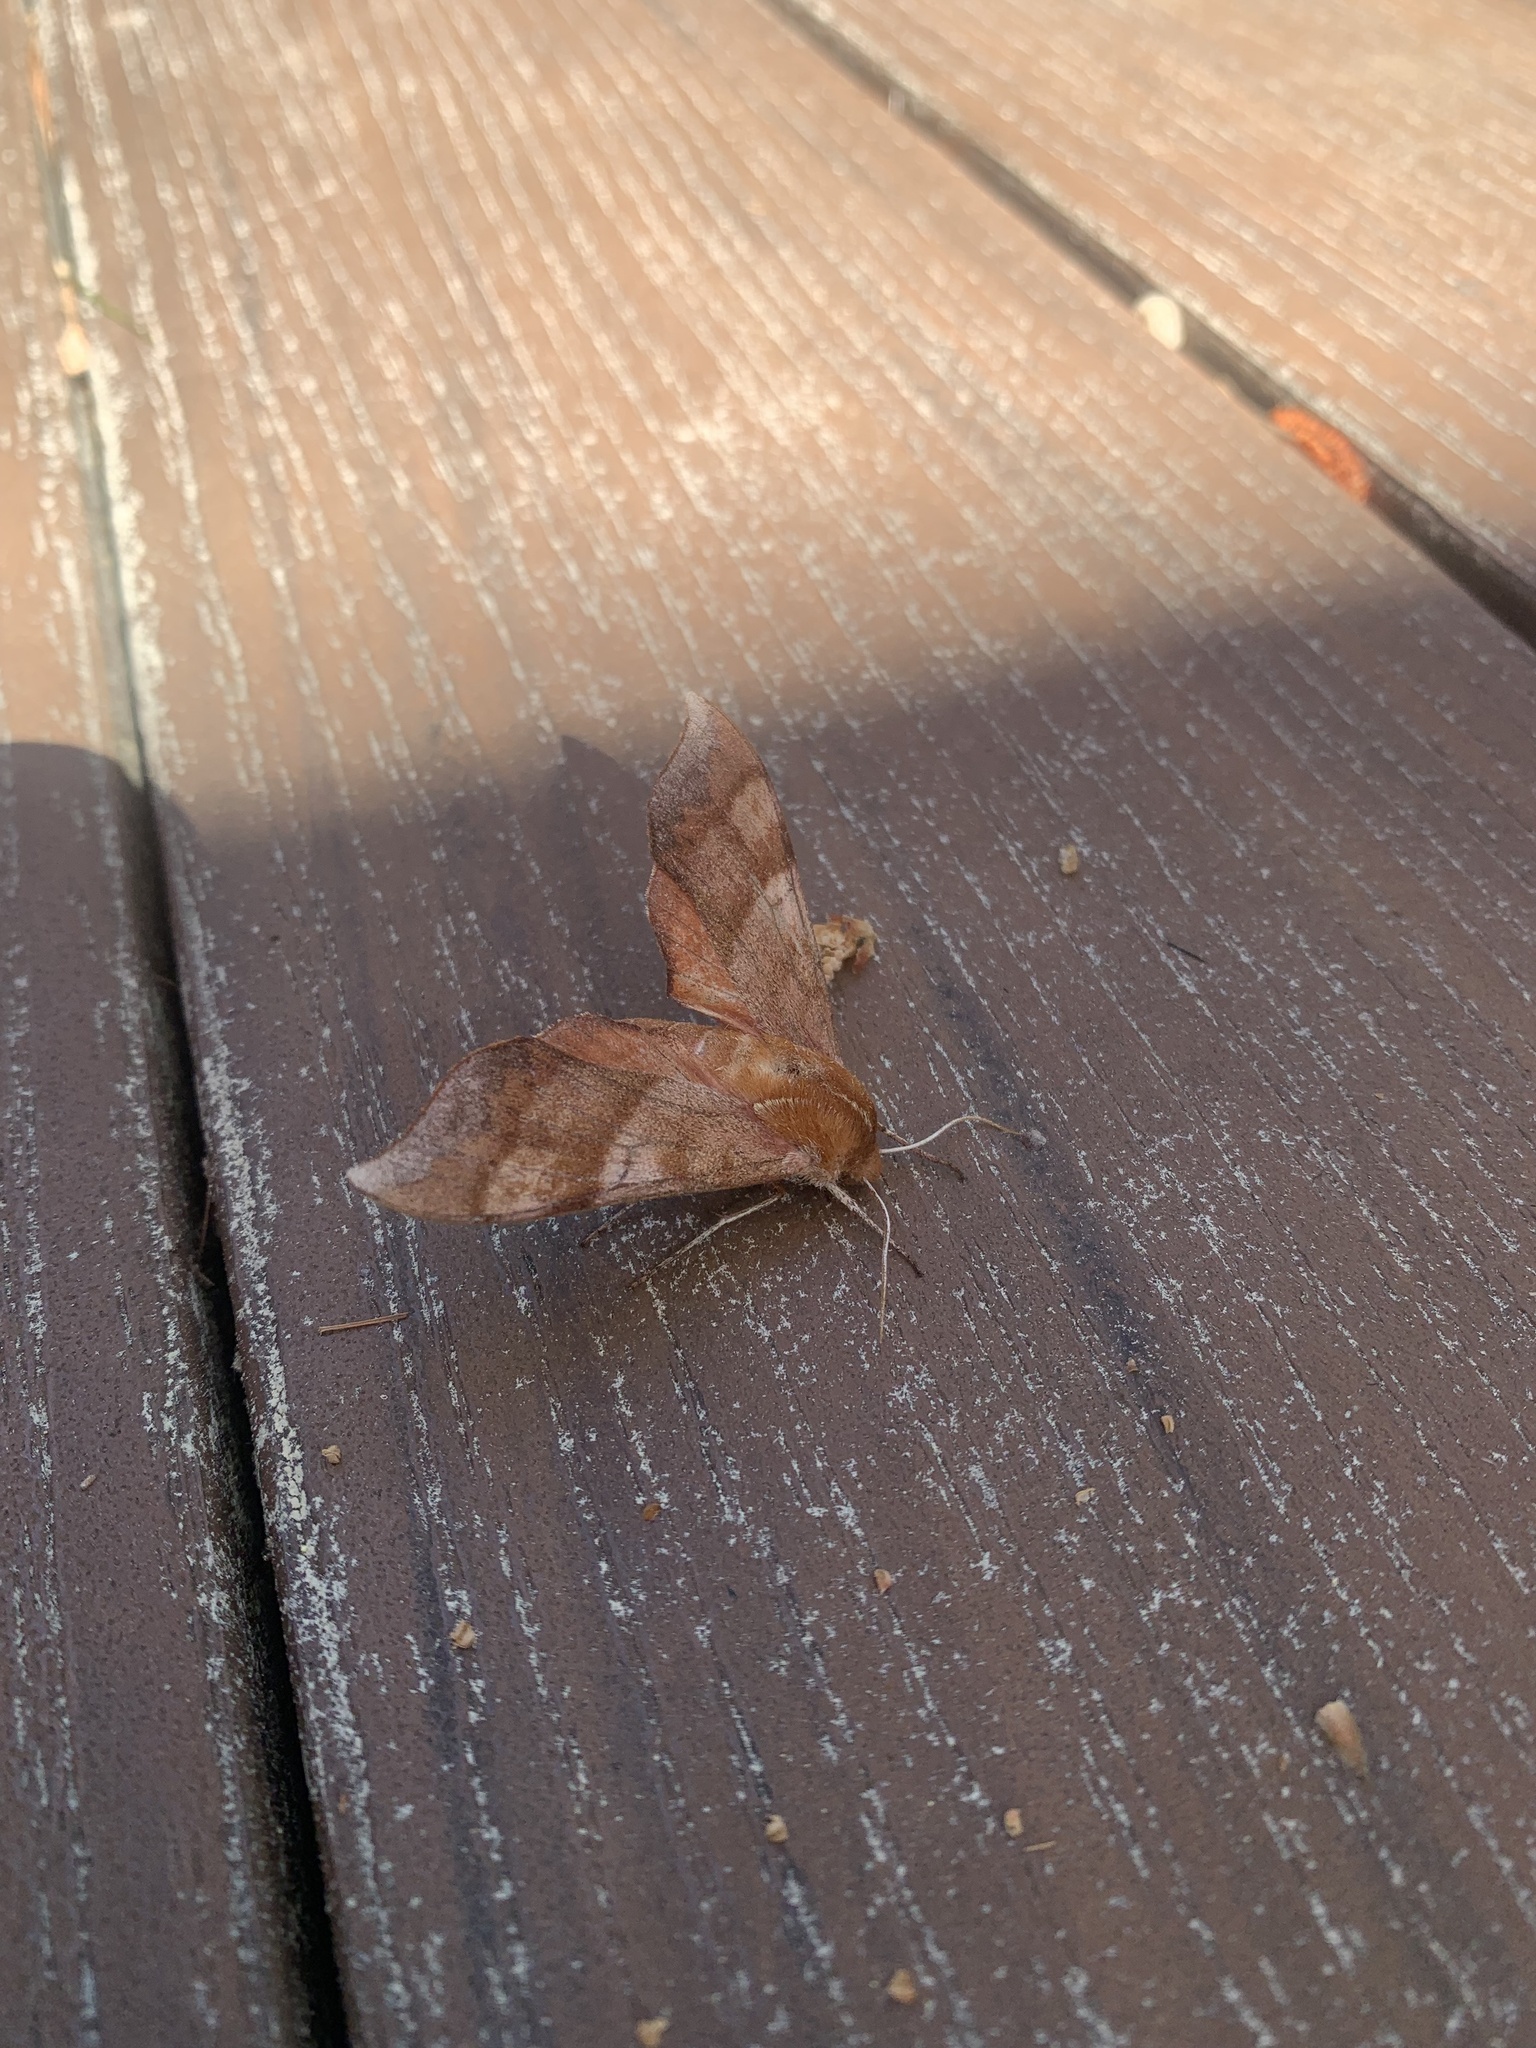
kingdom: Animalia
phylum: Arthropoda
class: Insecta
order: Lepidoptera
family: Sphingidae
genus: Darapsa
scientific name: Darapsa choerilus
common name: Azalea sphinx
